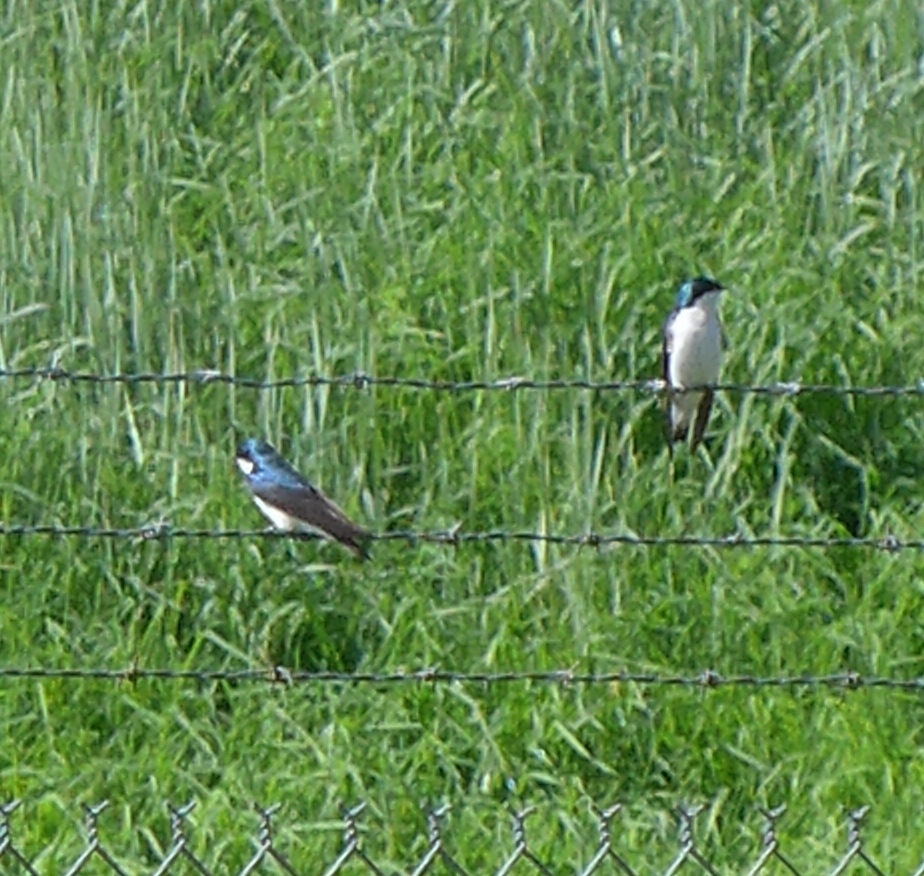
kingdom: Animalia
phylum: Chordata
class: Aves
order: Passeriformes
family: Hirundinidae
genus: Tachycineta
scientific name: Tachycineta bicolor
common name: Tree swallow
